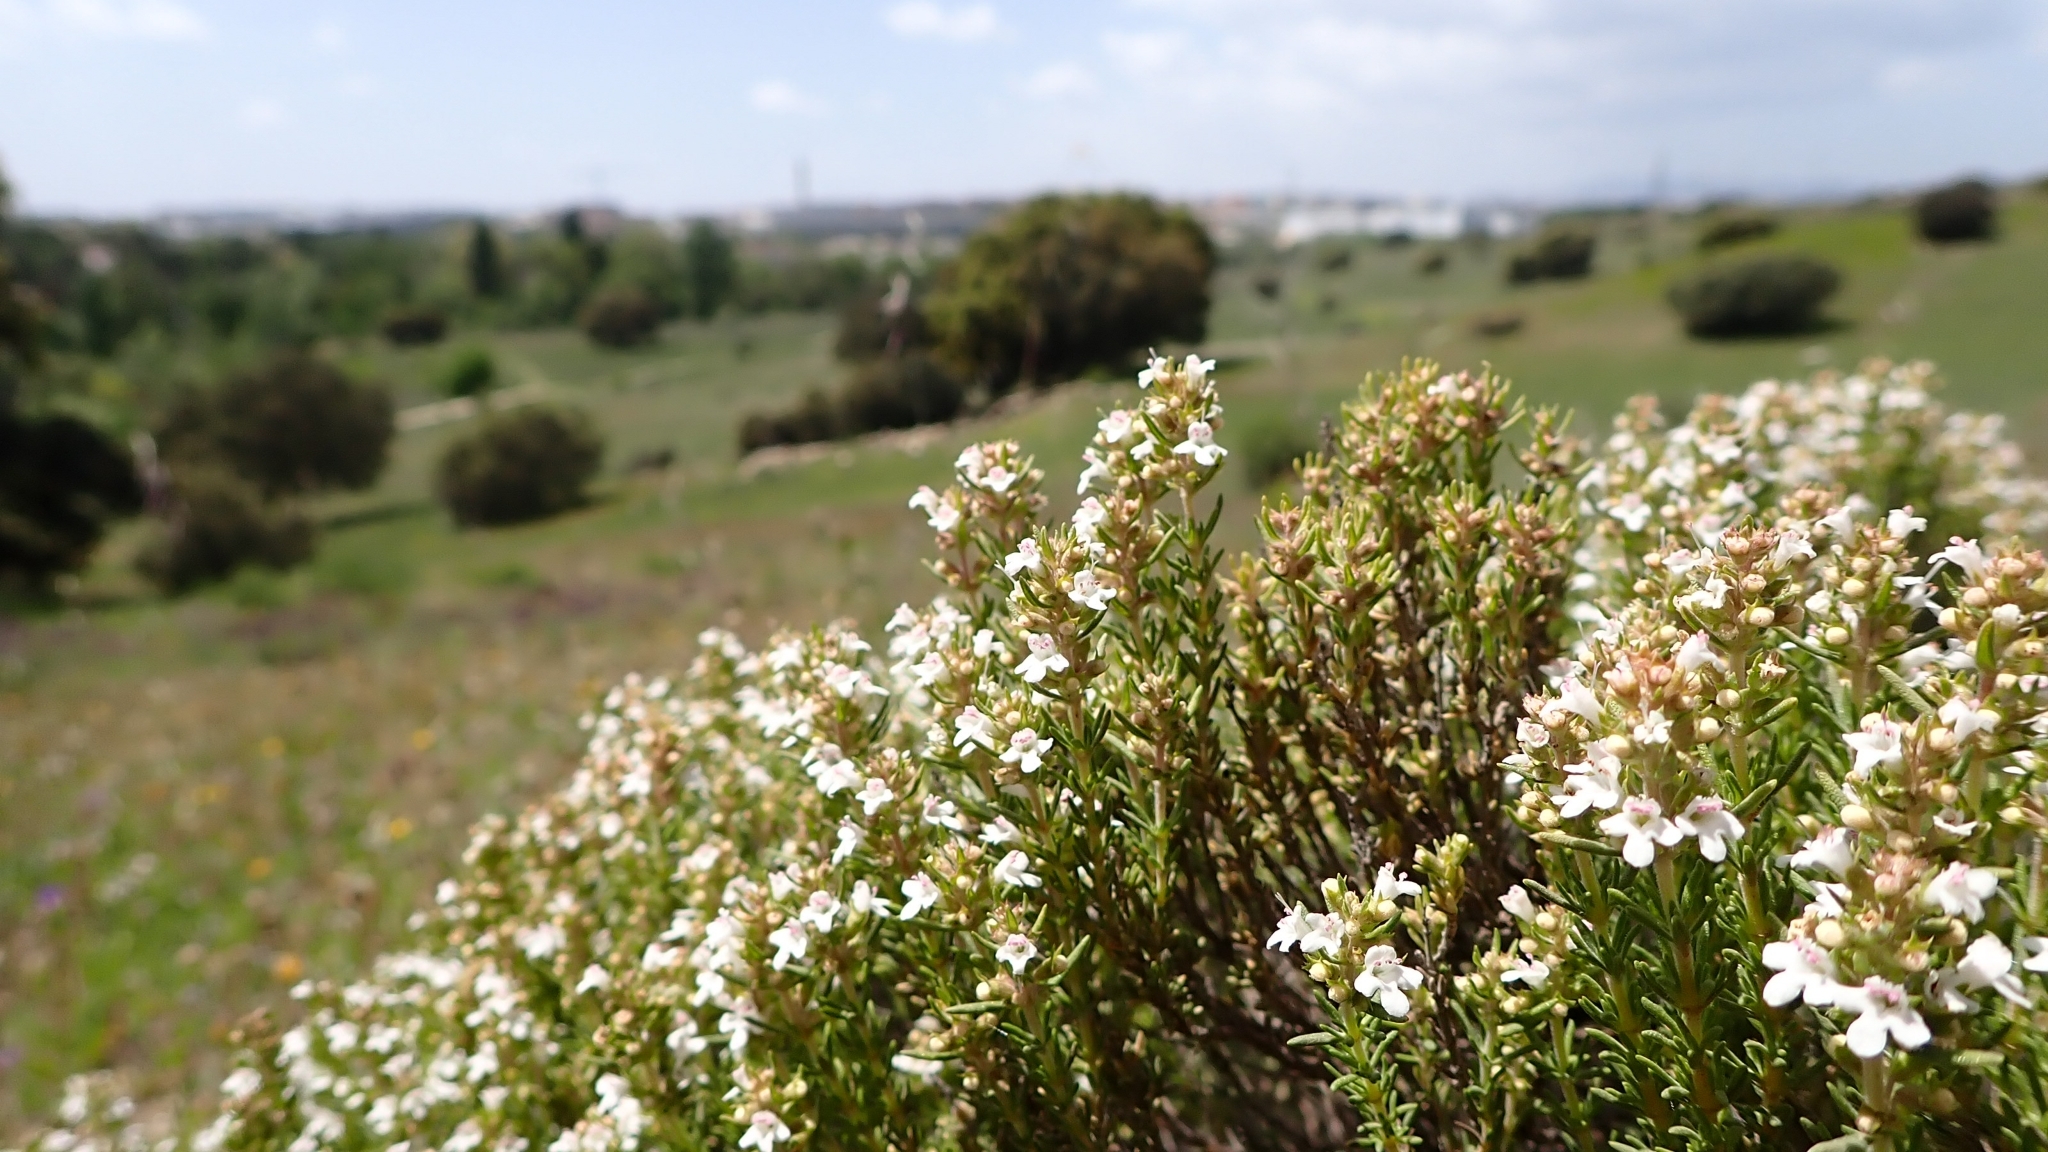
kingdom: Plantae
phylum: Tracheophyta
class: Magnoliopsida
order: Lamiales
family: Lamiaceae
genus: Thymus
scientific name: Thymus zygis
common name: White thyme
